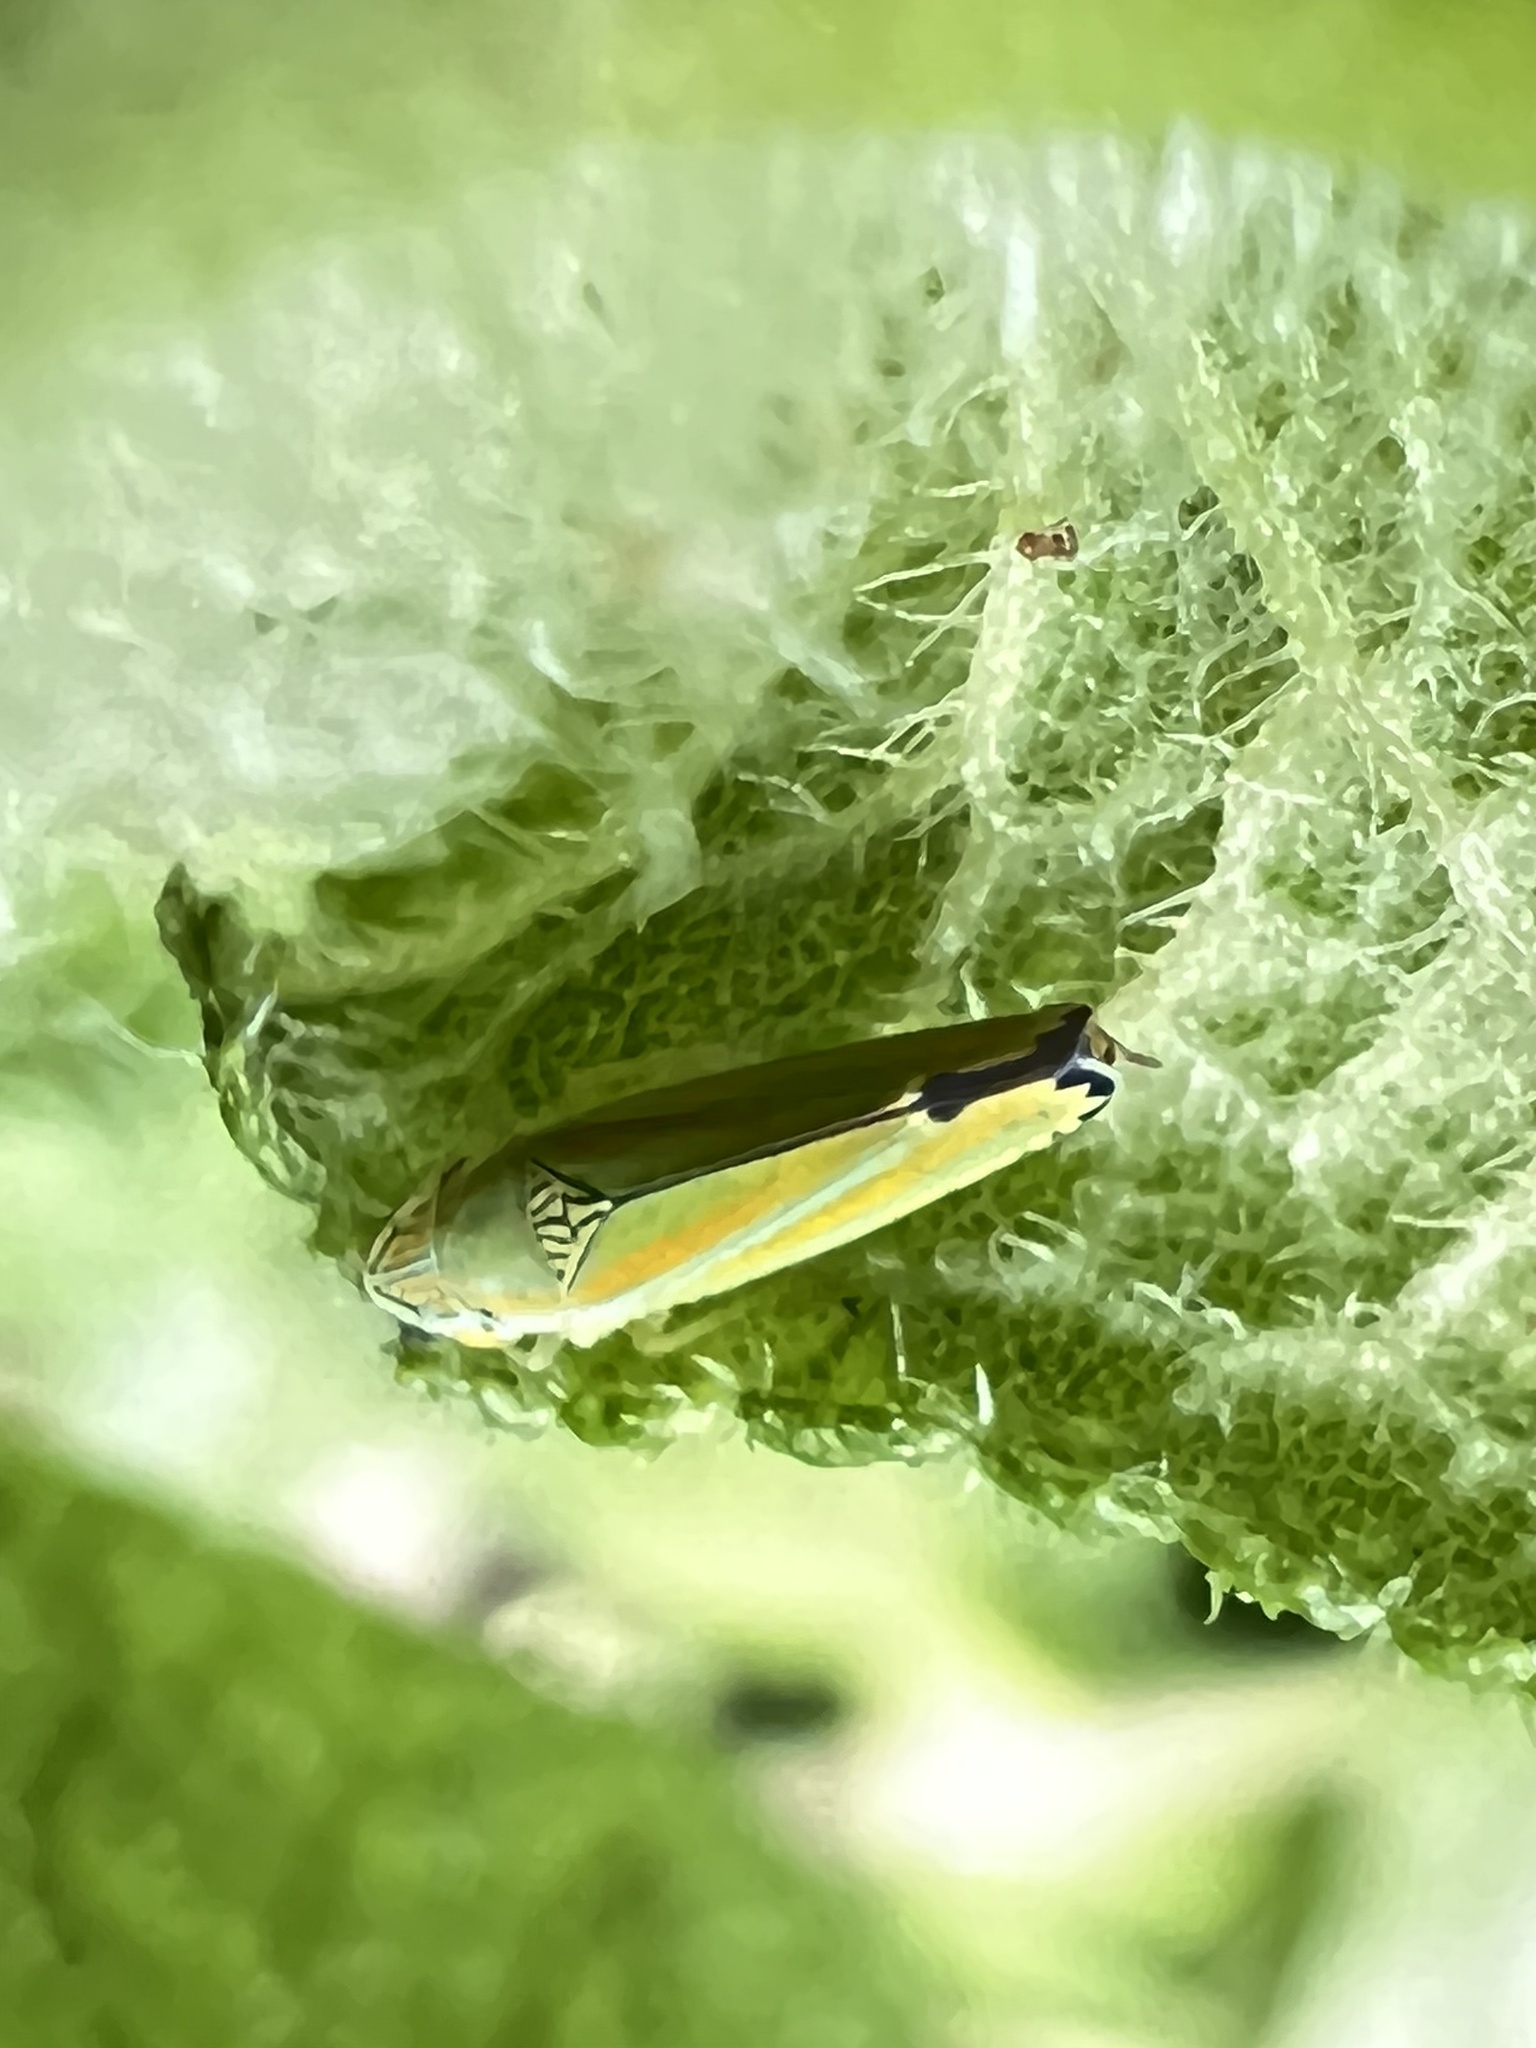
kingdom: Animalia
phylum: Arthropoda
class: Insecta
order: Hemiptera
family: Cicadellidae
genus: Graphocephala
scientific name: Graphocephala versuta
